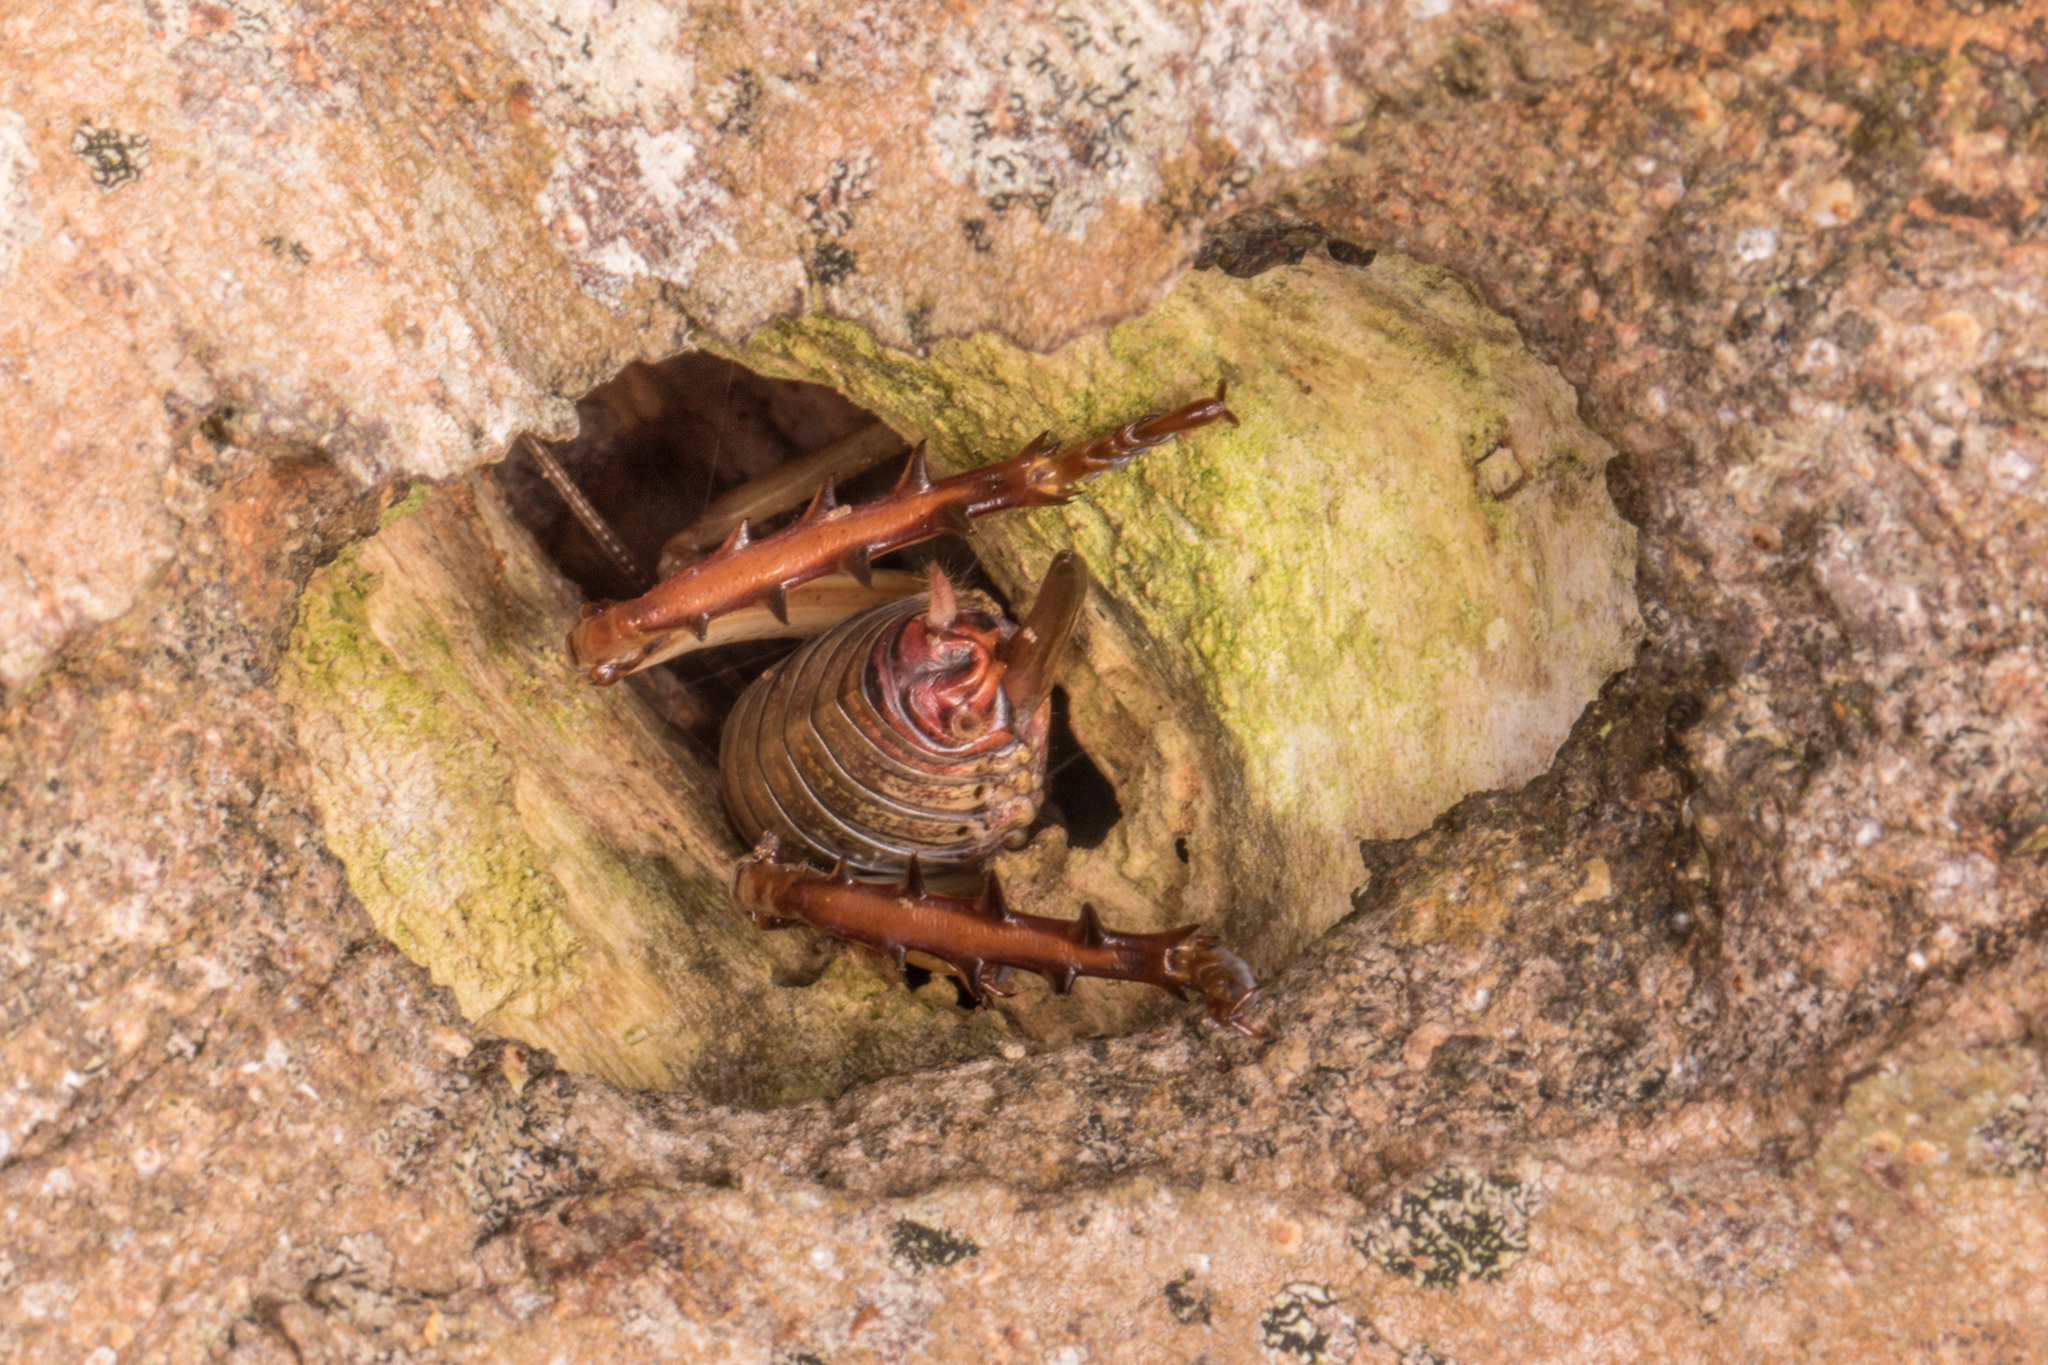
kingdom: Animalia
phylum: Arthropoda
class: Insecta
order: Orthoptera
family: Anostostomatidae
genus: Hemideina
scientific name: Hemideina thoracica
